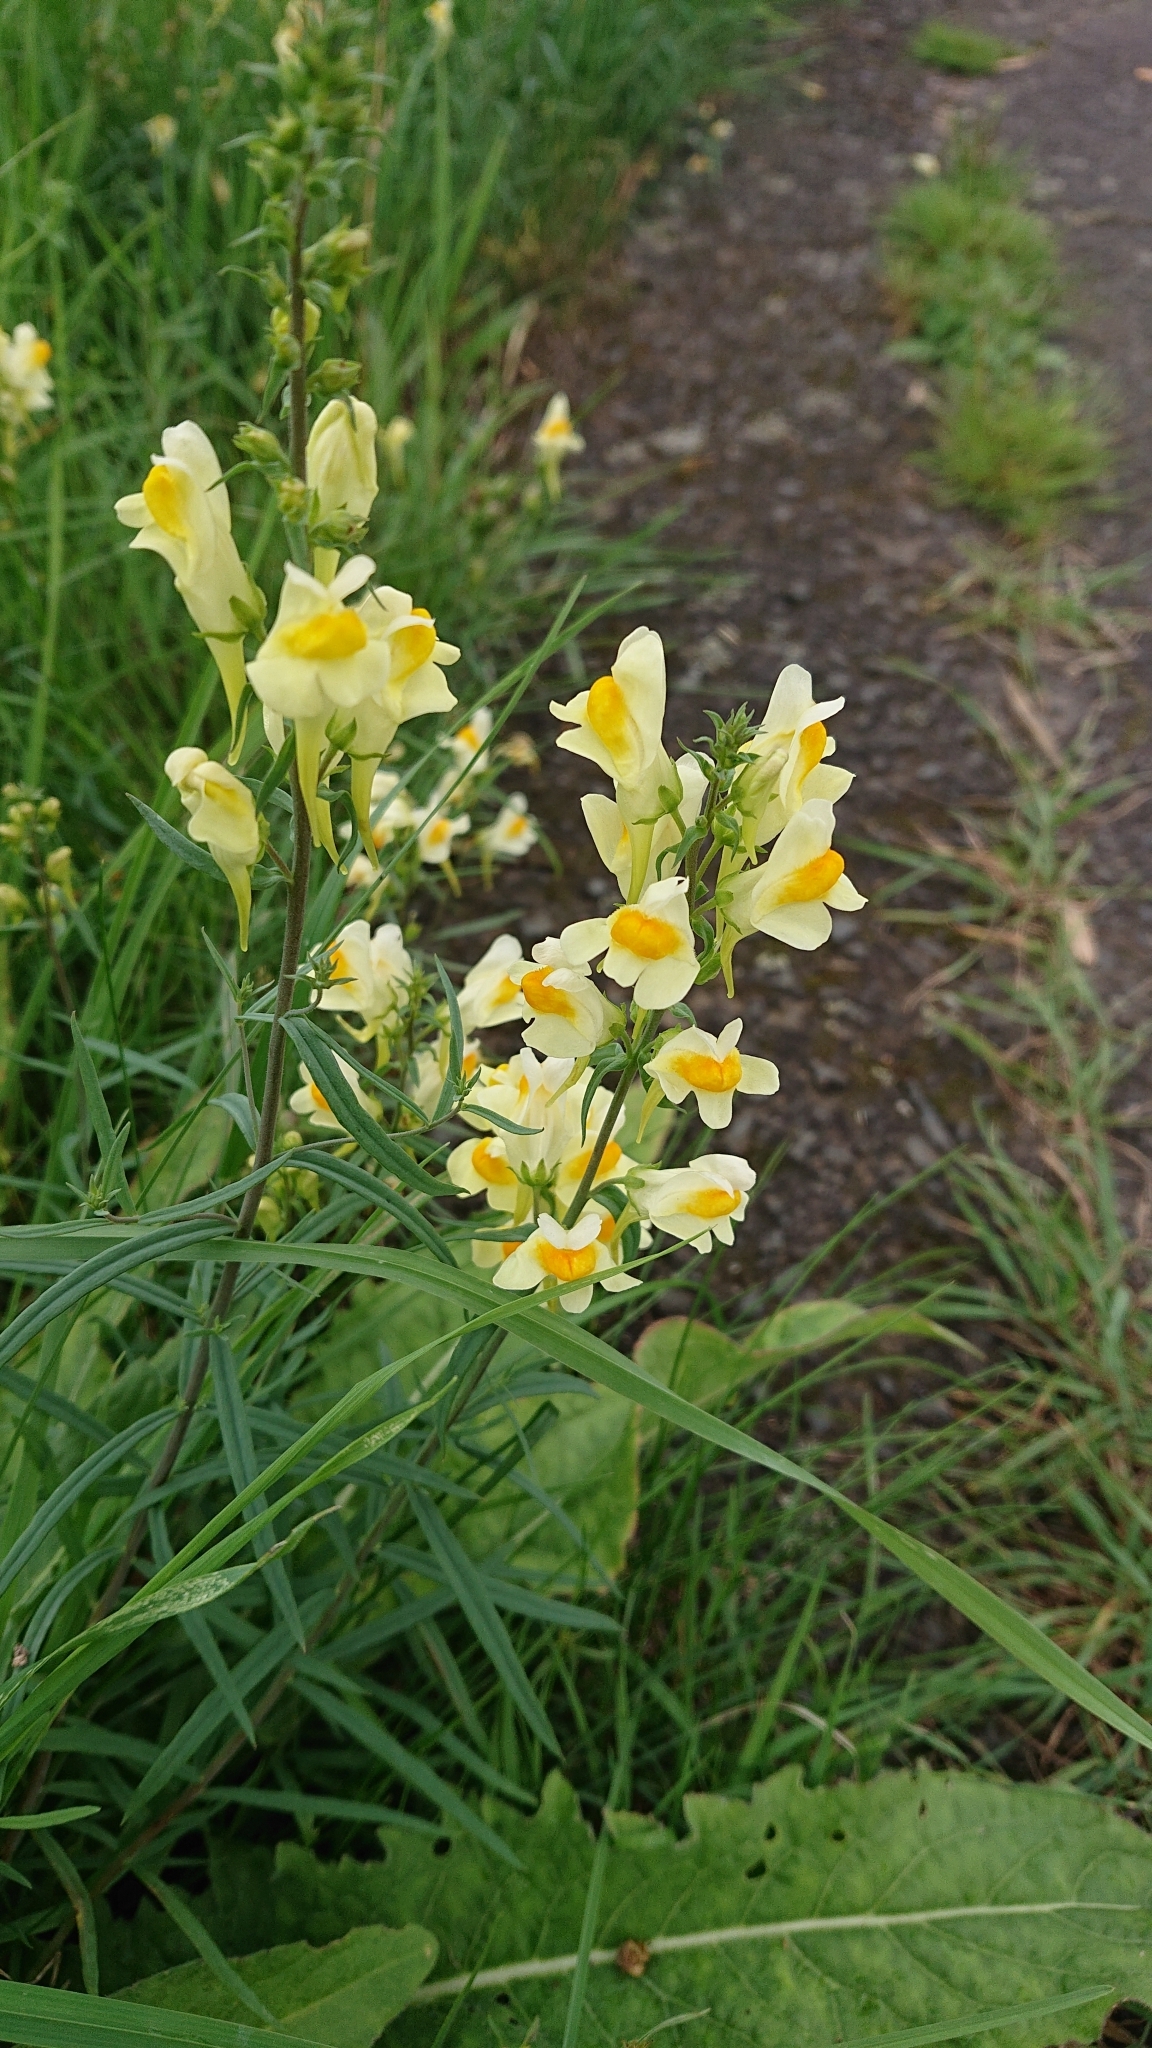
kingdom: Plantae
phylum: Tracheophyta
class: Magnoliopsida
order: Lamiales
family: Plantaginaceae
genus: Linaria
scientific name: Linaria vulgaris
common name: Butter and eggs
